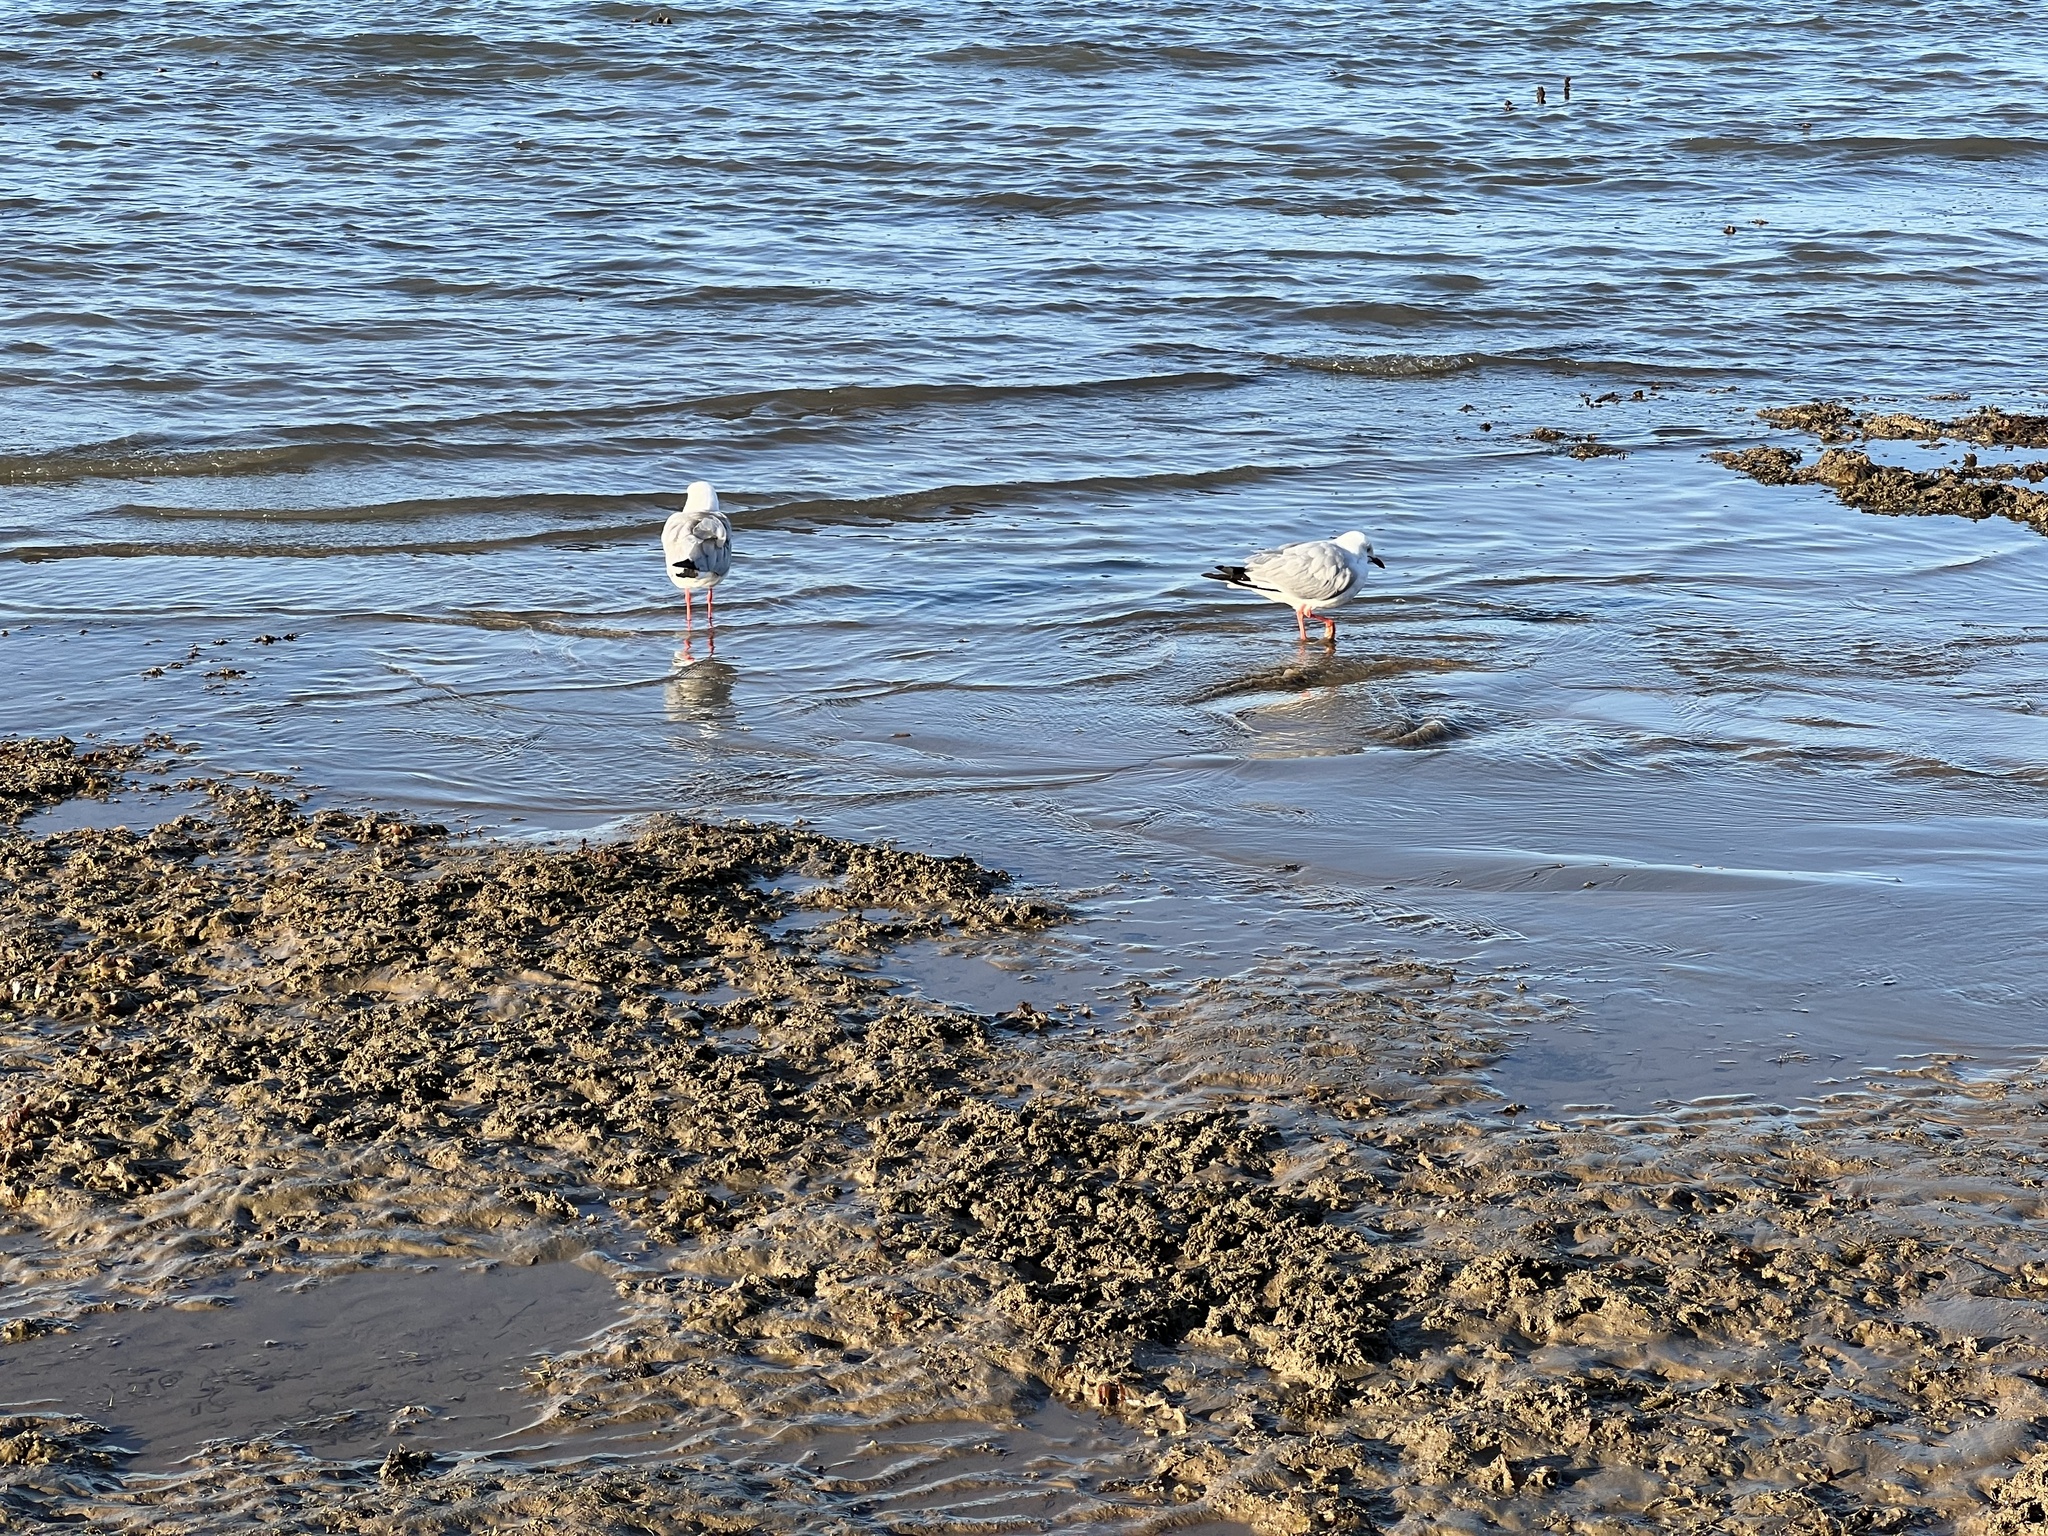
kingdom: Animalia
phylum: Chordata
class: Aves
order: Charadriiformes
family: Laridae
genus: Chroicocephalus
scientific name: Chroicocephalus novaehollandiae
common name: Silver gull
